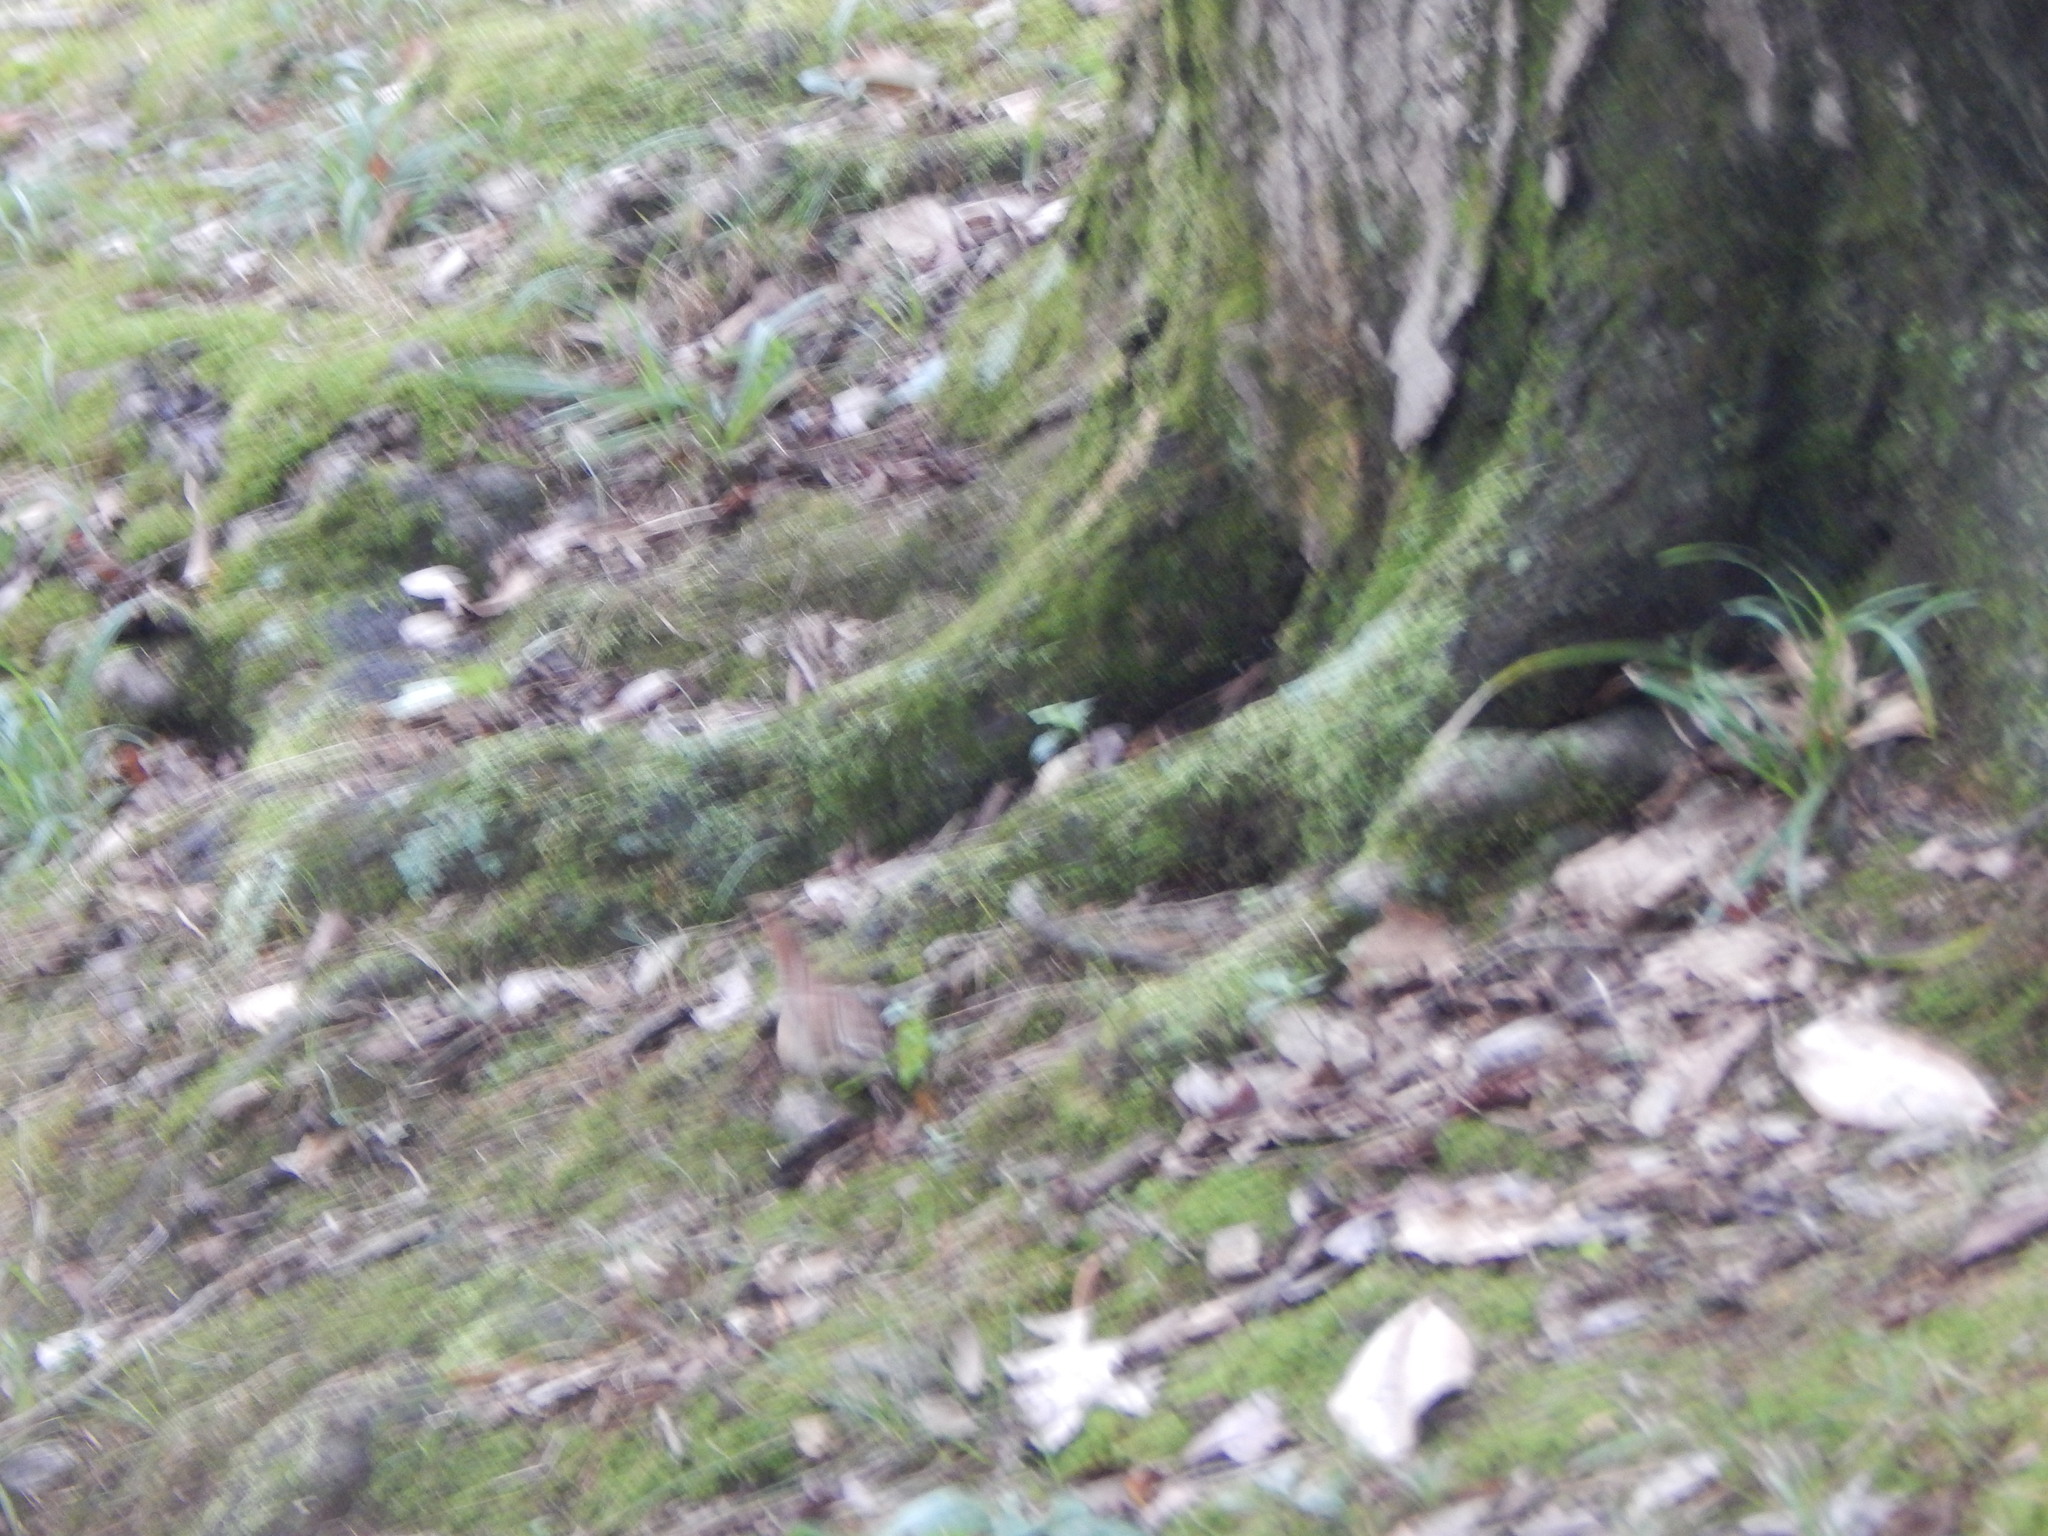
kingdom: Animalia
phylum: Chordata
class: Aves
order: Passeriformes
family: Troglodytidae
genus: Thryothorus
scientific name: Thryothorus ludovicianus
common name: Carolina wren
